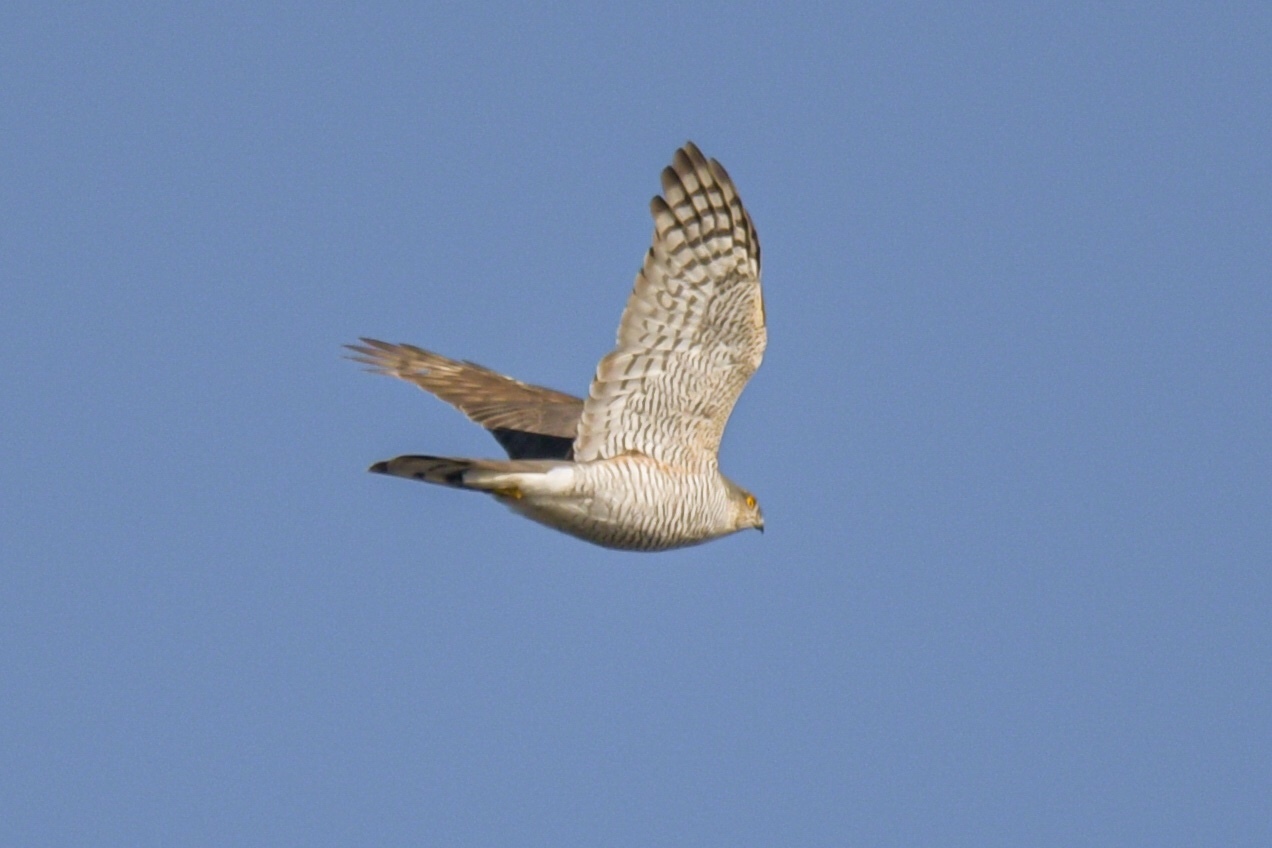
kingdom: Animalia
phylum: Chordata
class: Aves
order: Accipitriformes
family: Accipitridae
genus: Accipiter
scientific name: Accipiter nisus
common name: Eurasian sparrowhawk
